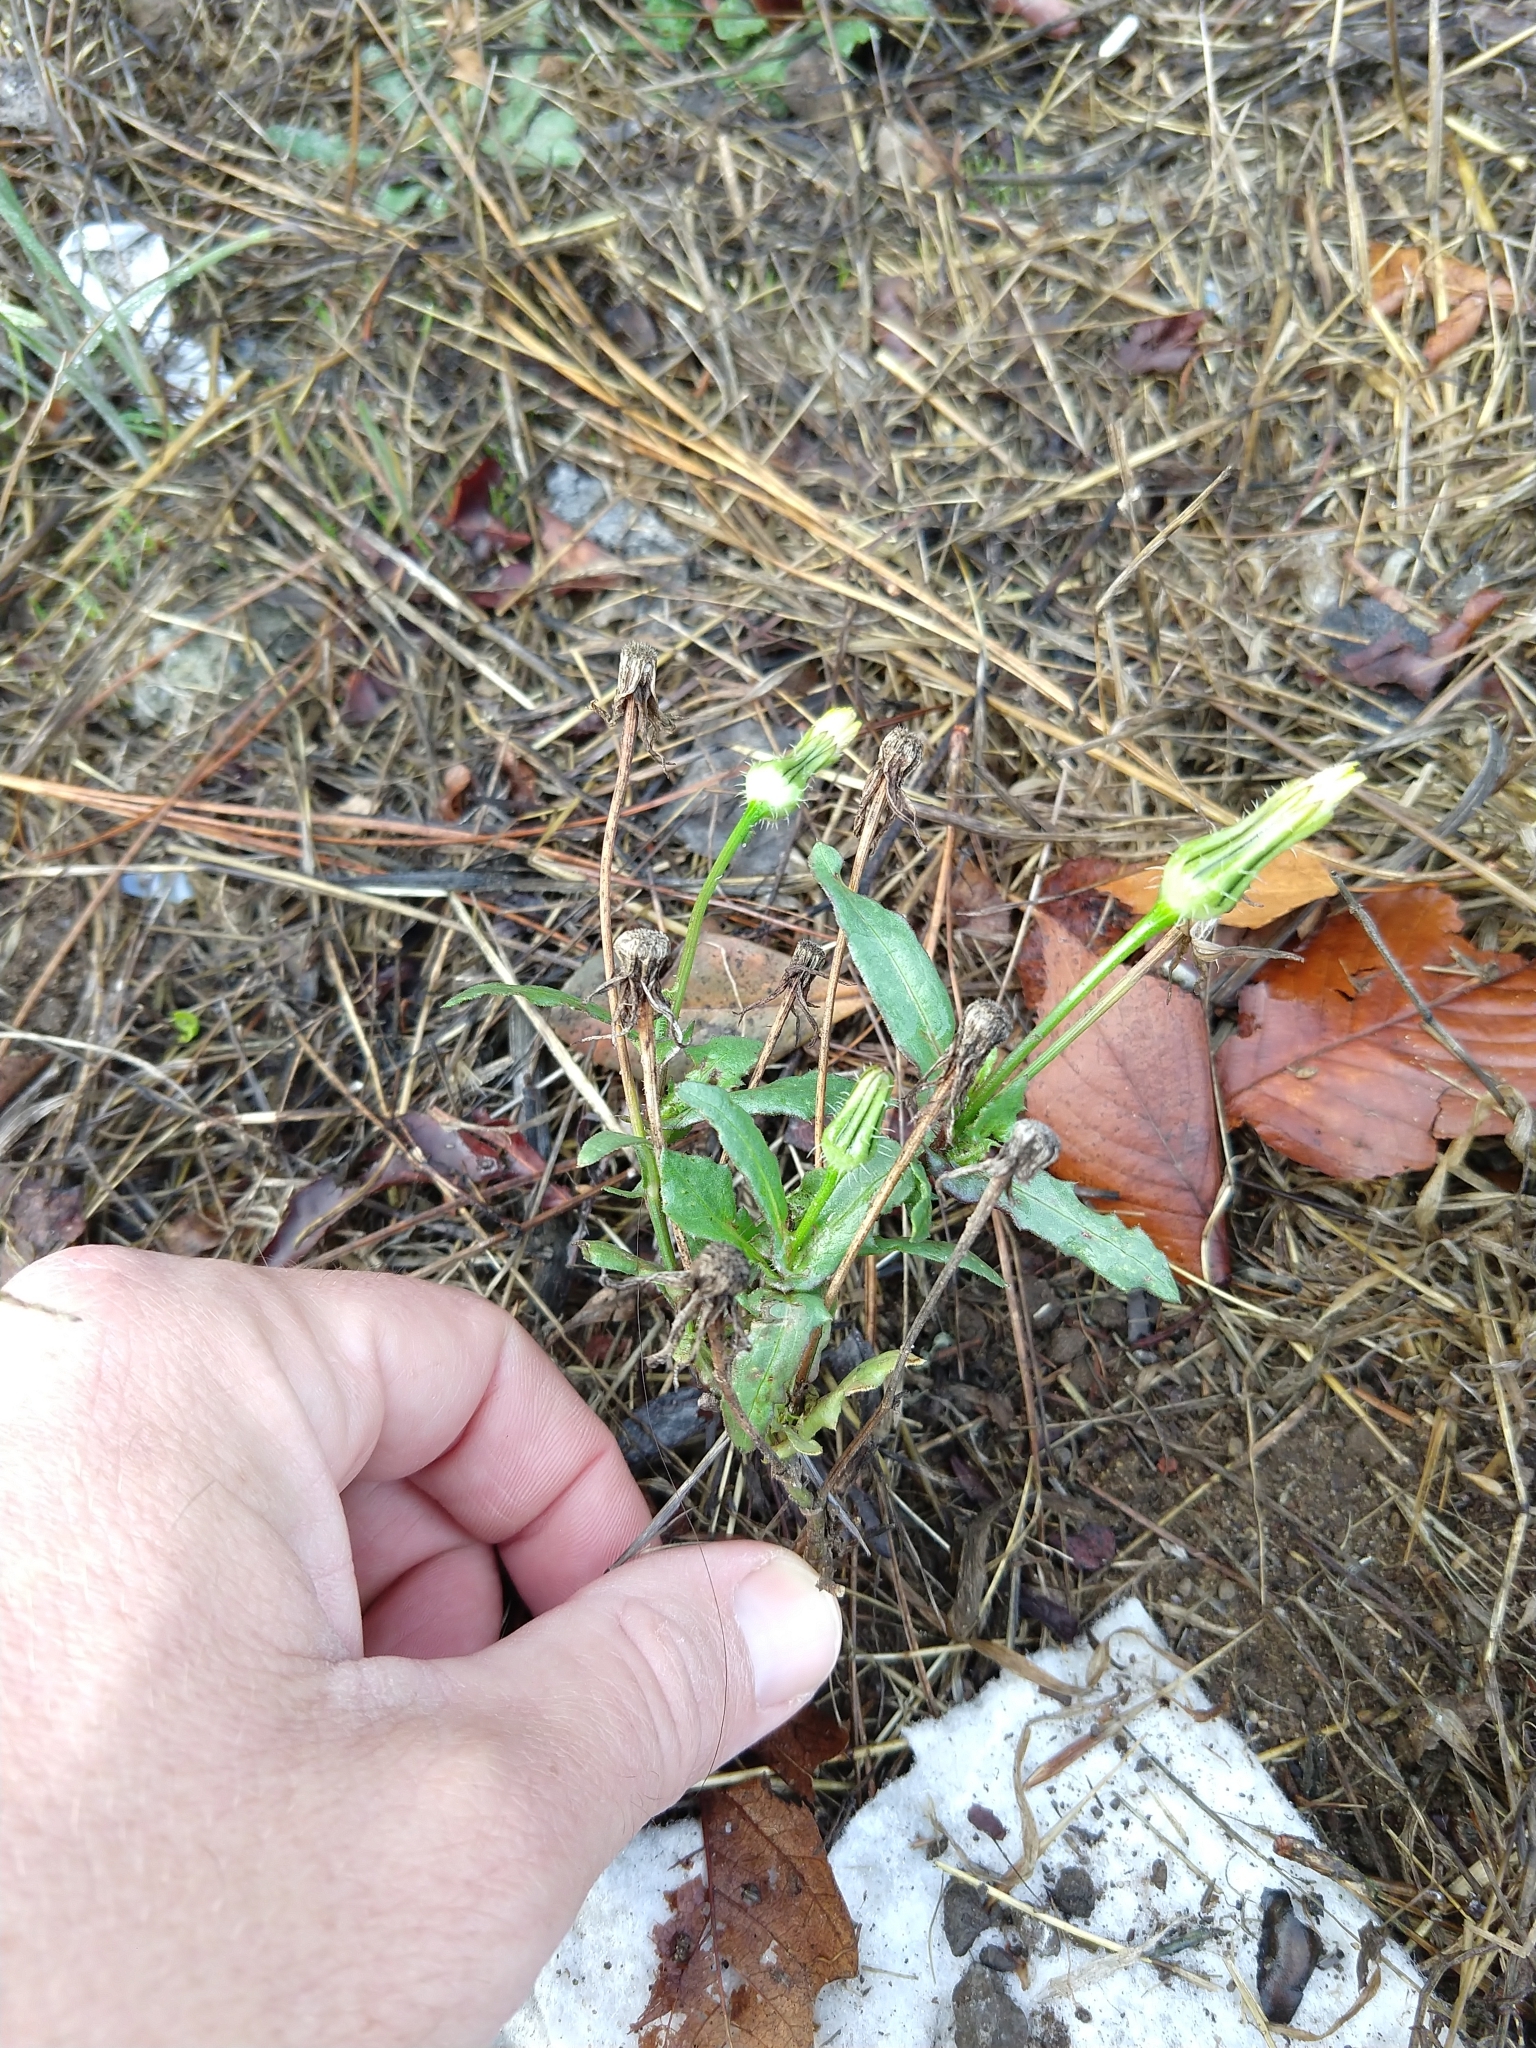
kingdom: Plantae
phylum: Tracheophyta
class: Magnoliopsida
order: Asterales
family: Asteraceae
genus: Urospermum
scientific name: Urospermum picroides
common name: False hawkbit
